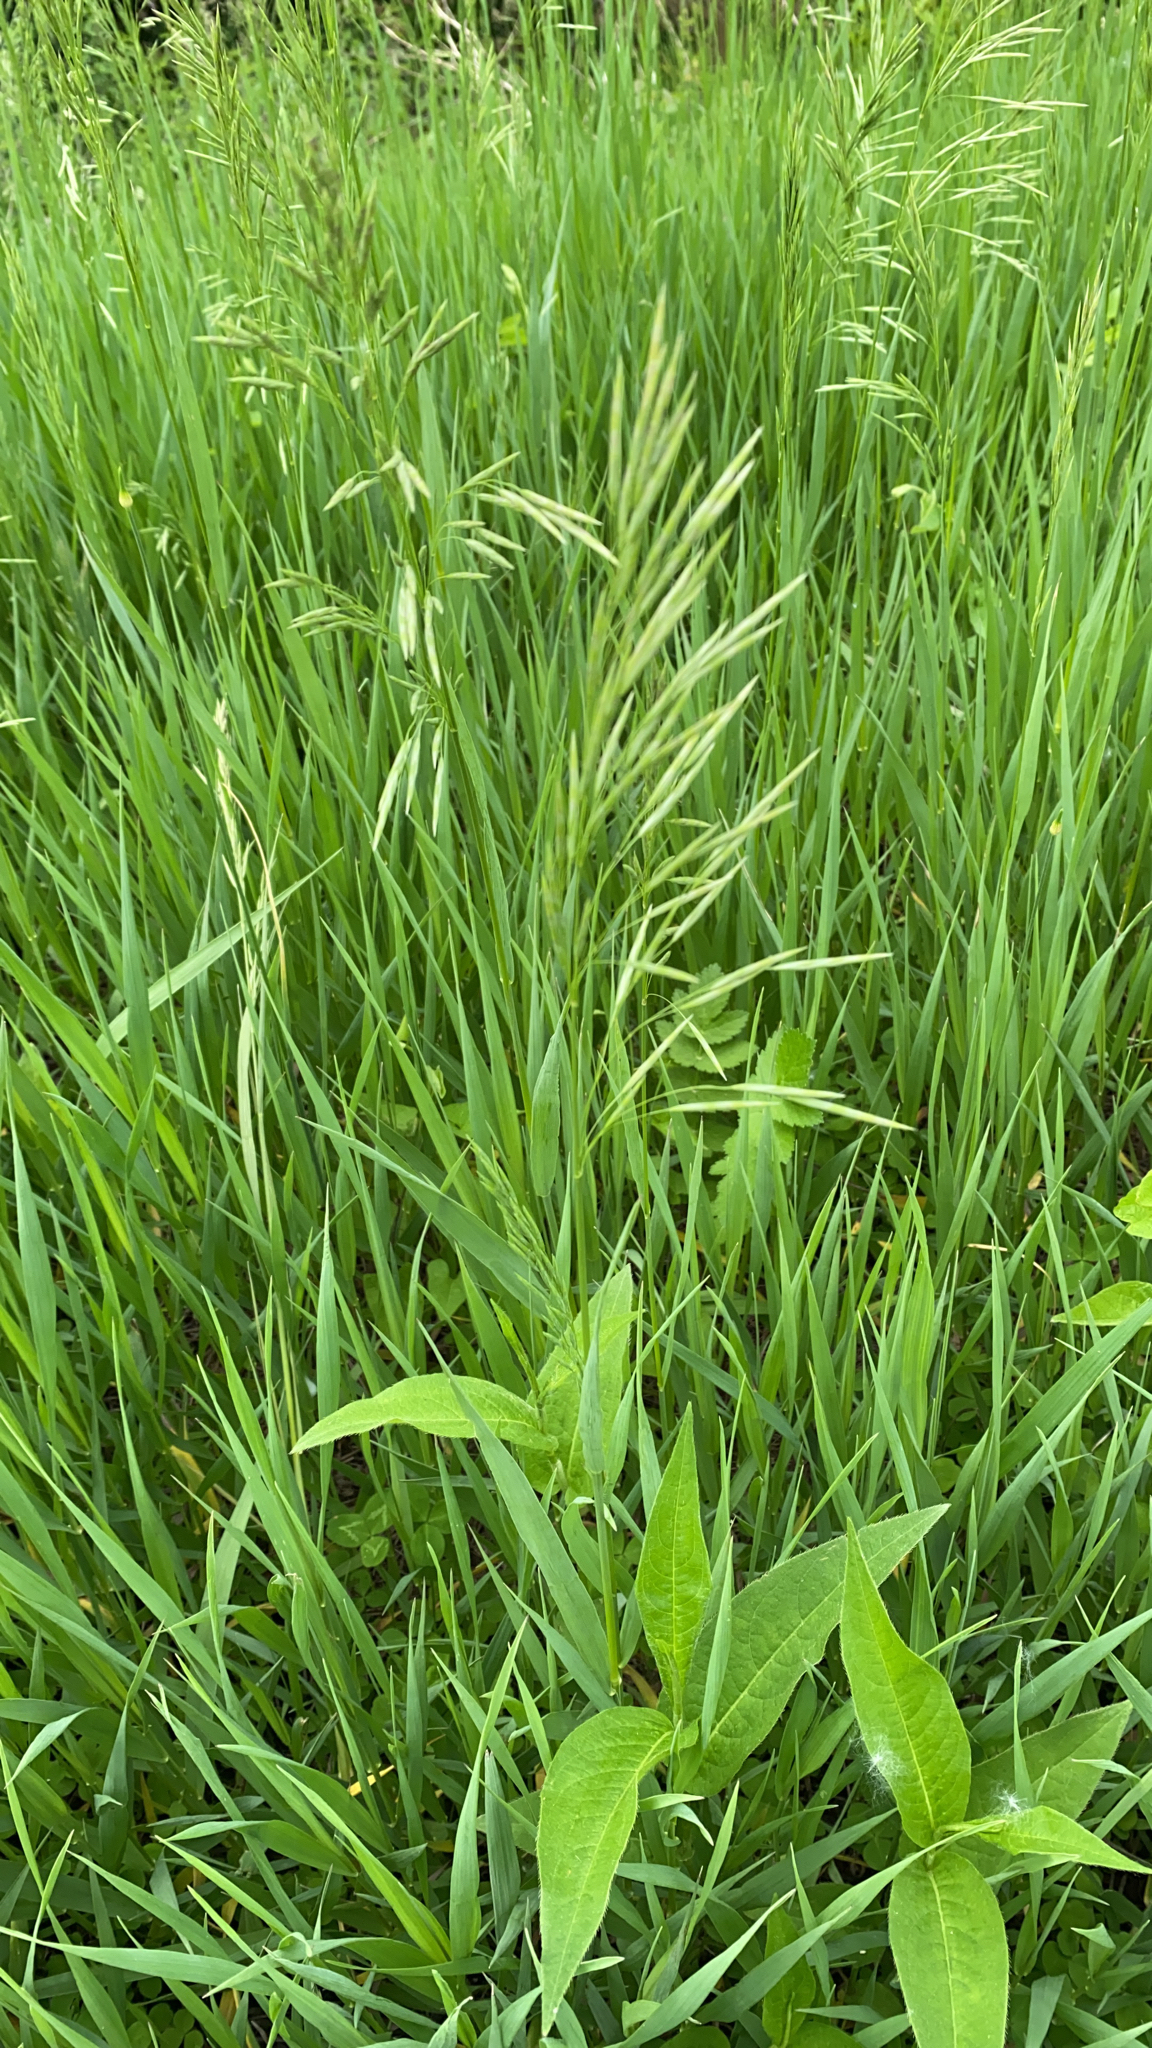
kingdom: Plantae
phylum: Tracheophyta
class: Liliopsida
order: Poales
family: Poaceae
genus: Bromus
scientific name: Bromus inermis
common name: Smooth brome
